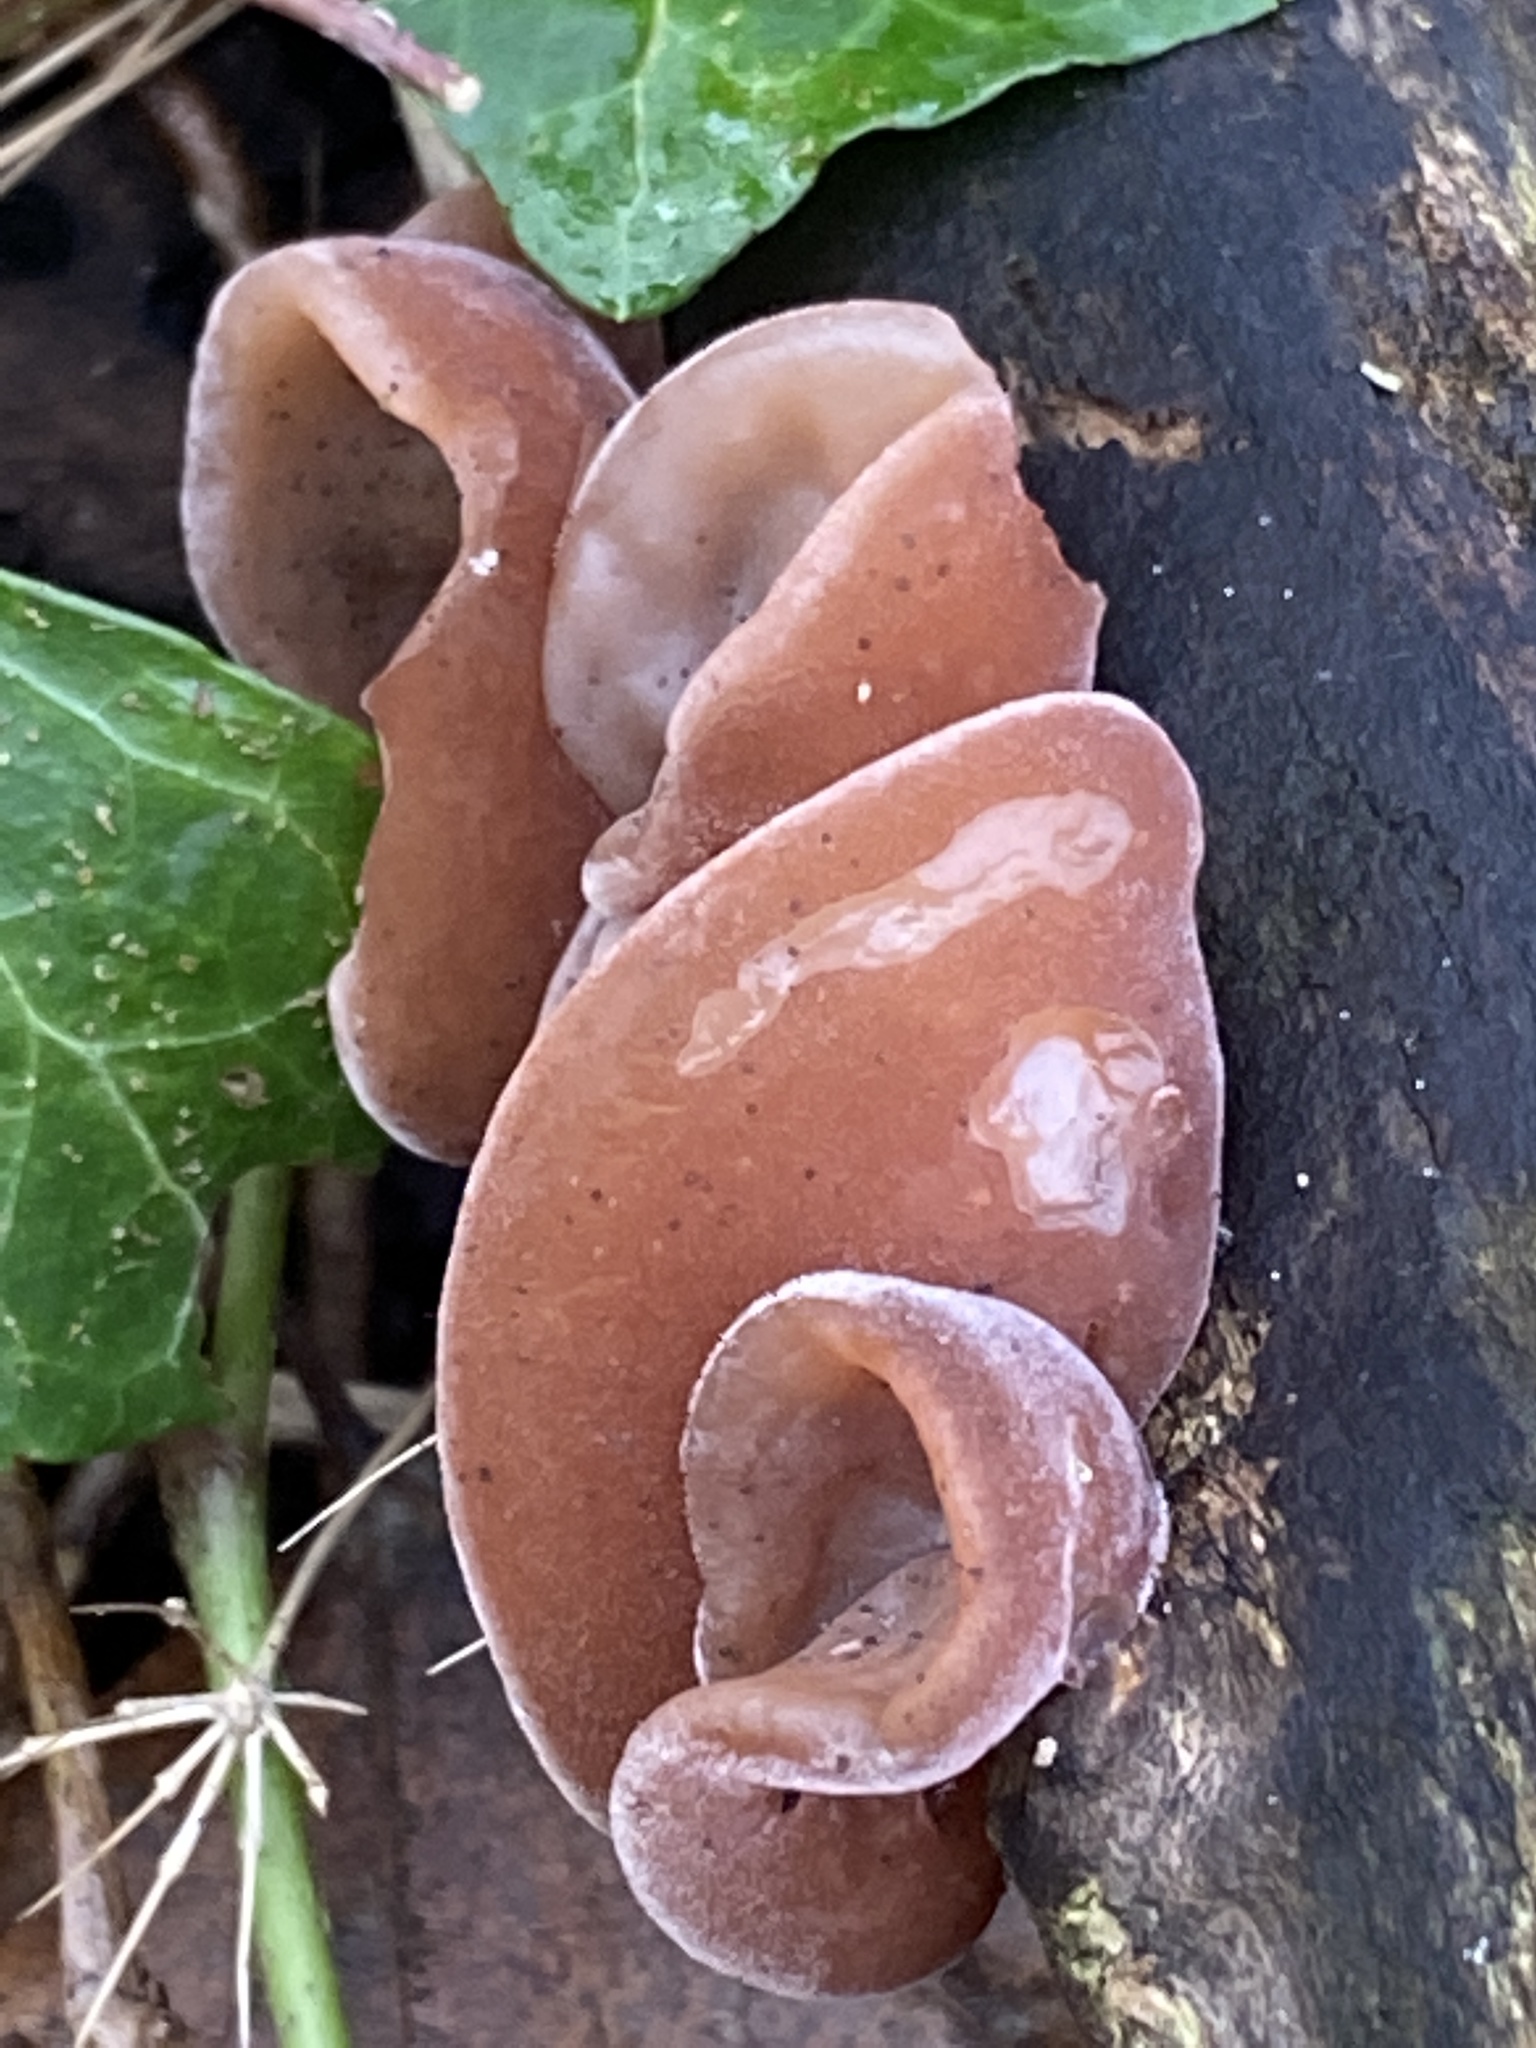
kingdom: Fungi
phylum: Basidiomycota
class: Agaricomycetes
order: Auriculariales
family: Auriculariaceae
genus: Auricularia
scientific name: Auricularia auricula-judae
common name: Jelly ear
